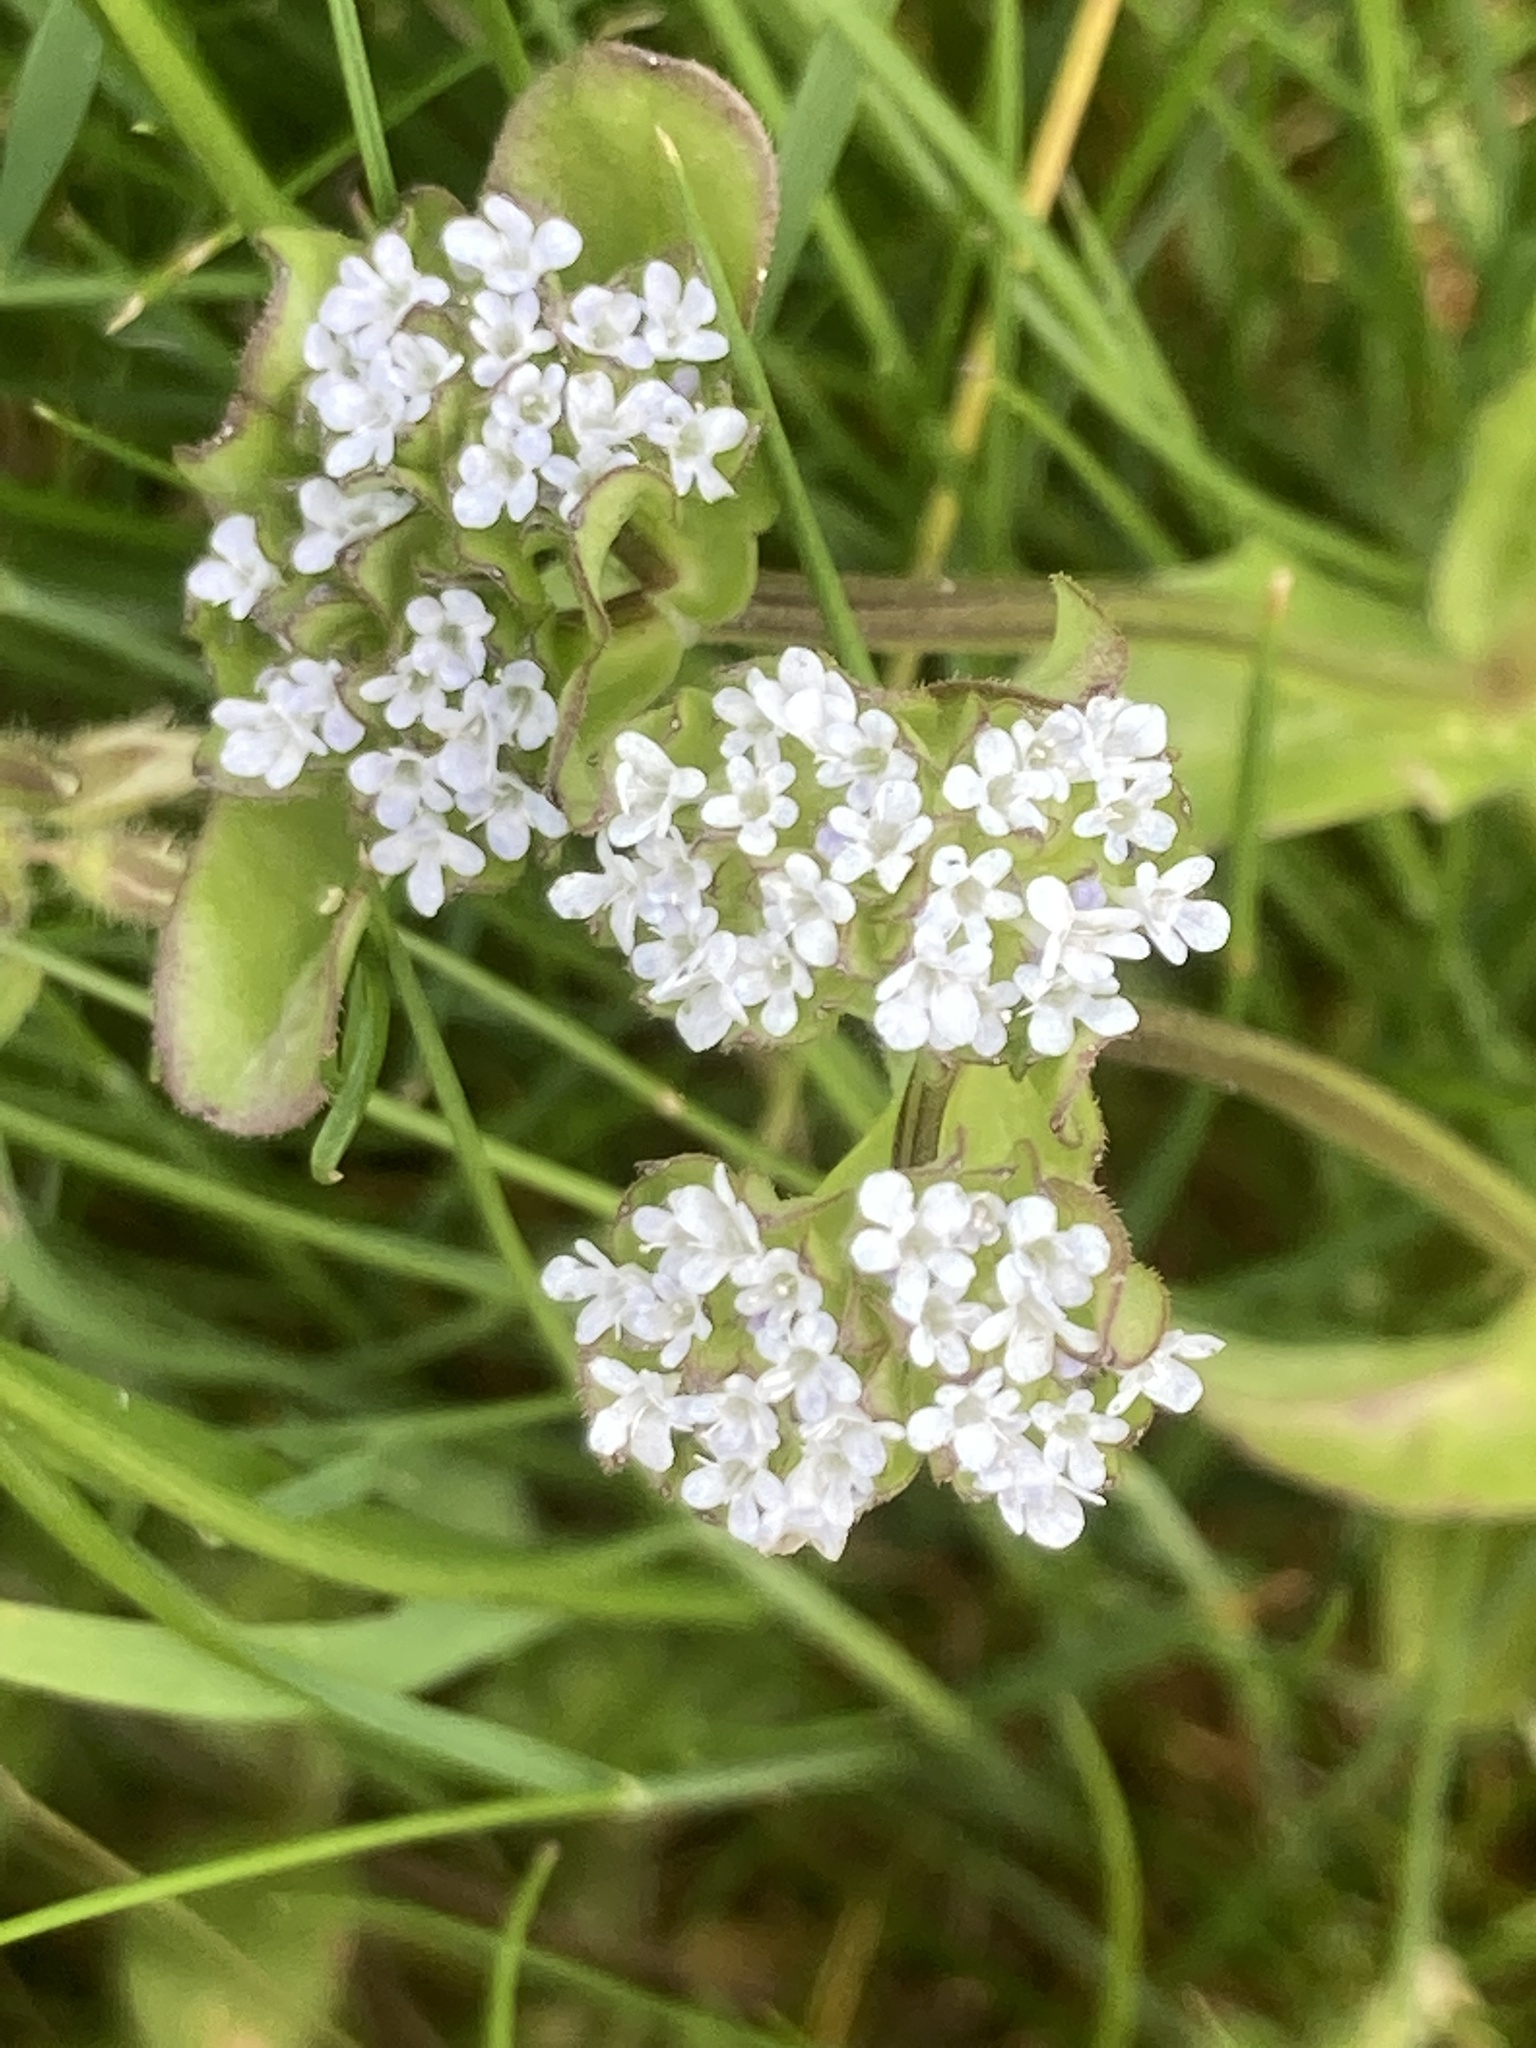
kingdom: Plantae
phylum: Tracheophyta
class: Magnoliopsida
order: Dipsacales
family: Caprifoliaceae
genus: Valerianella
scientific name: Valerianella locusta
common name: Common cornsalad
